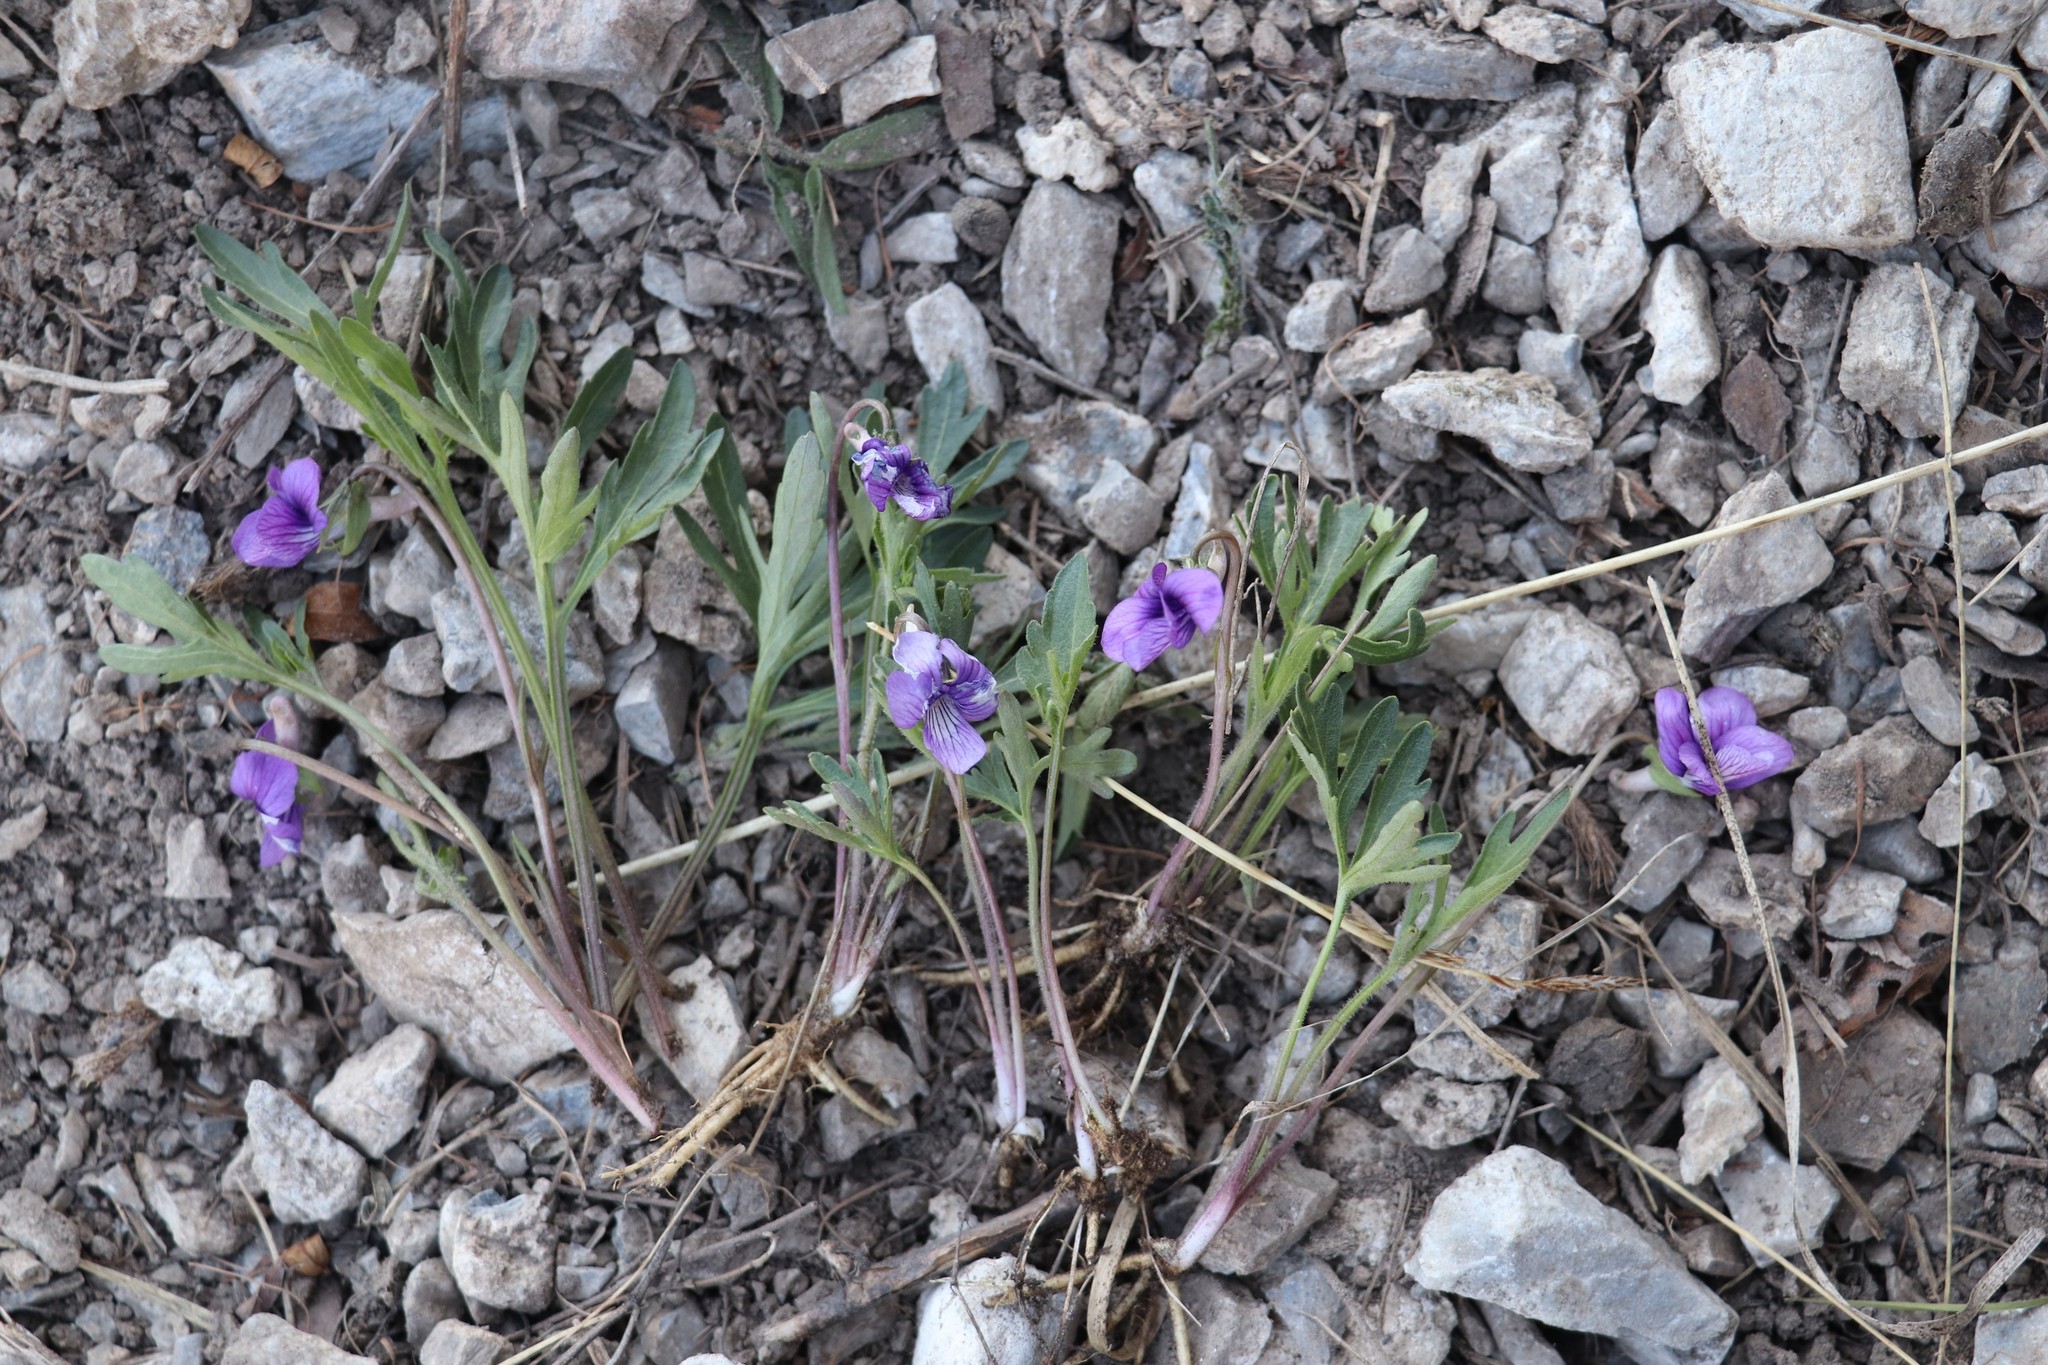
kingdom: Plantae
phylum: Tracheophyta
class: Magnoliopsida
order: Malpighiales
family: Violaceae
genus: Viola
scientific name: Viola multifida
